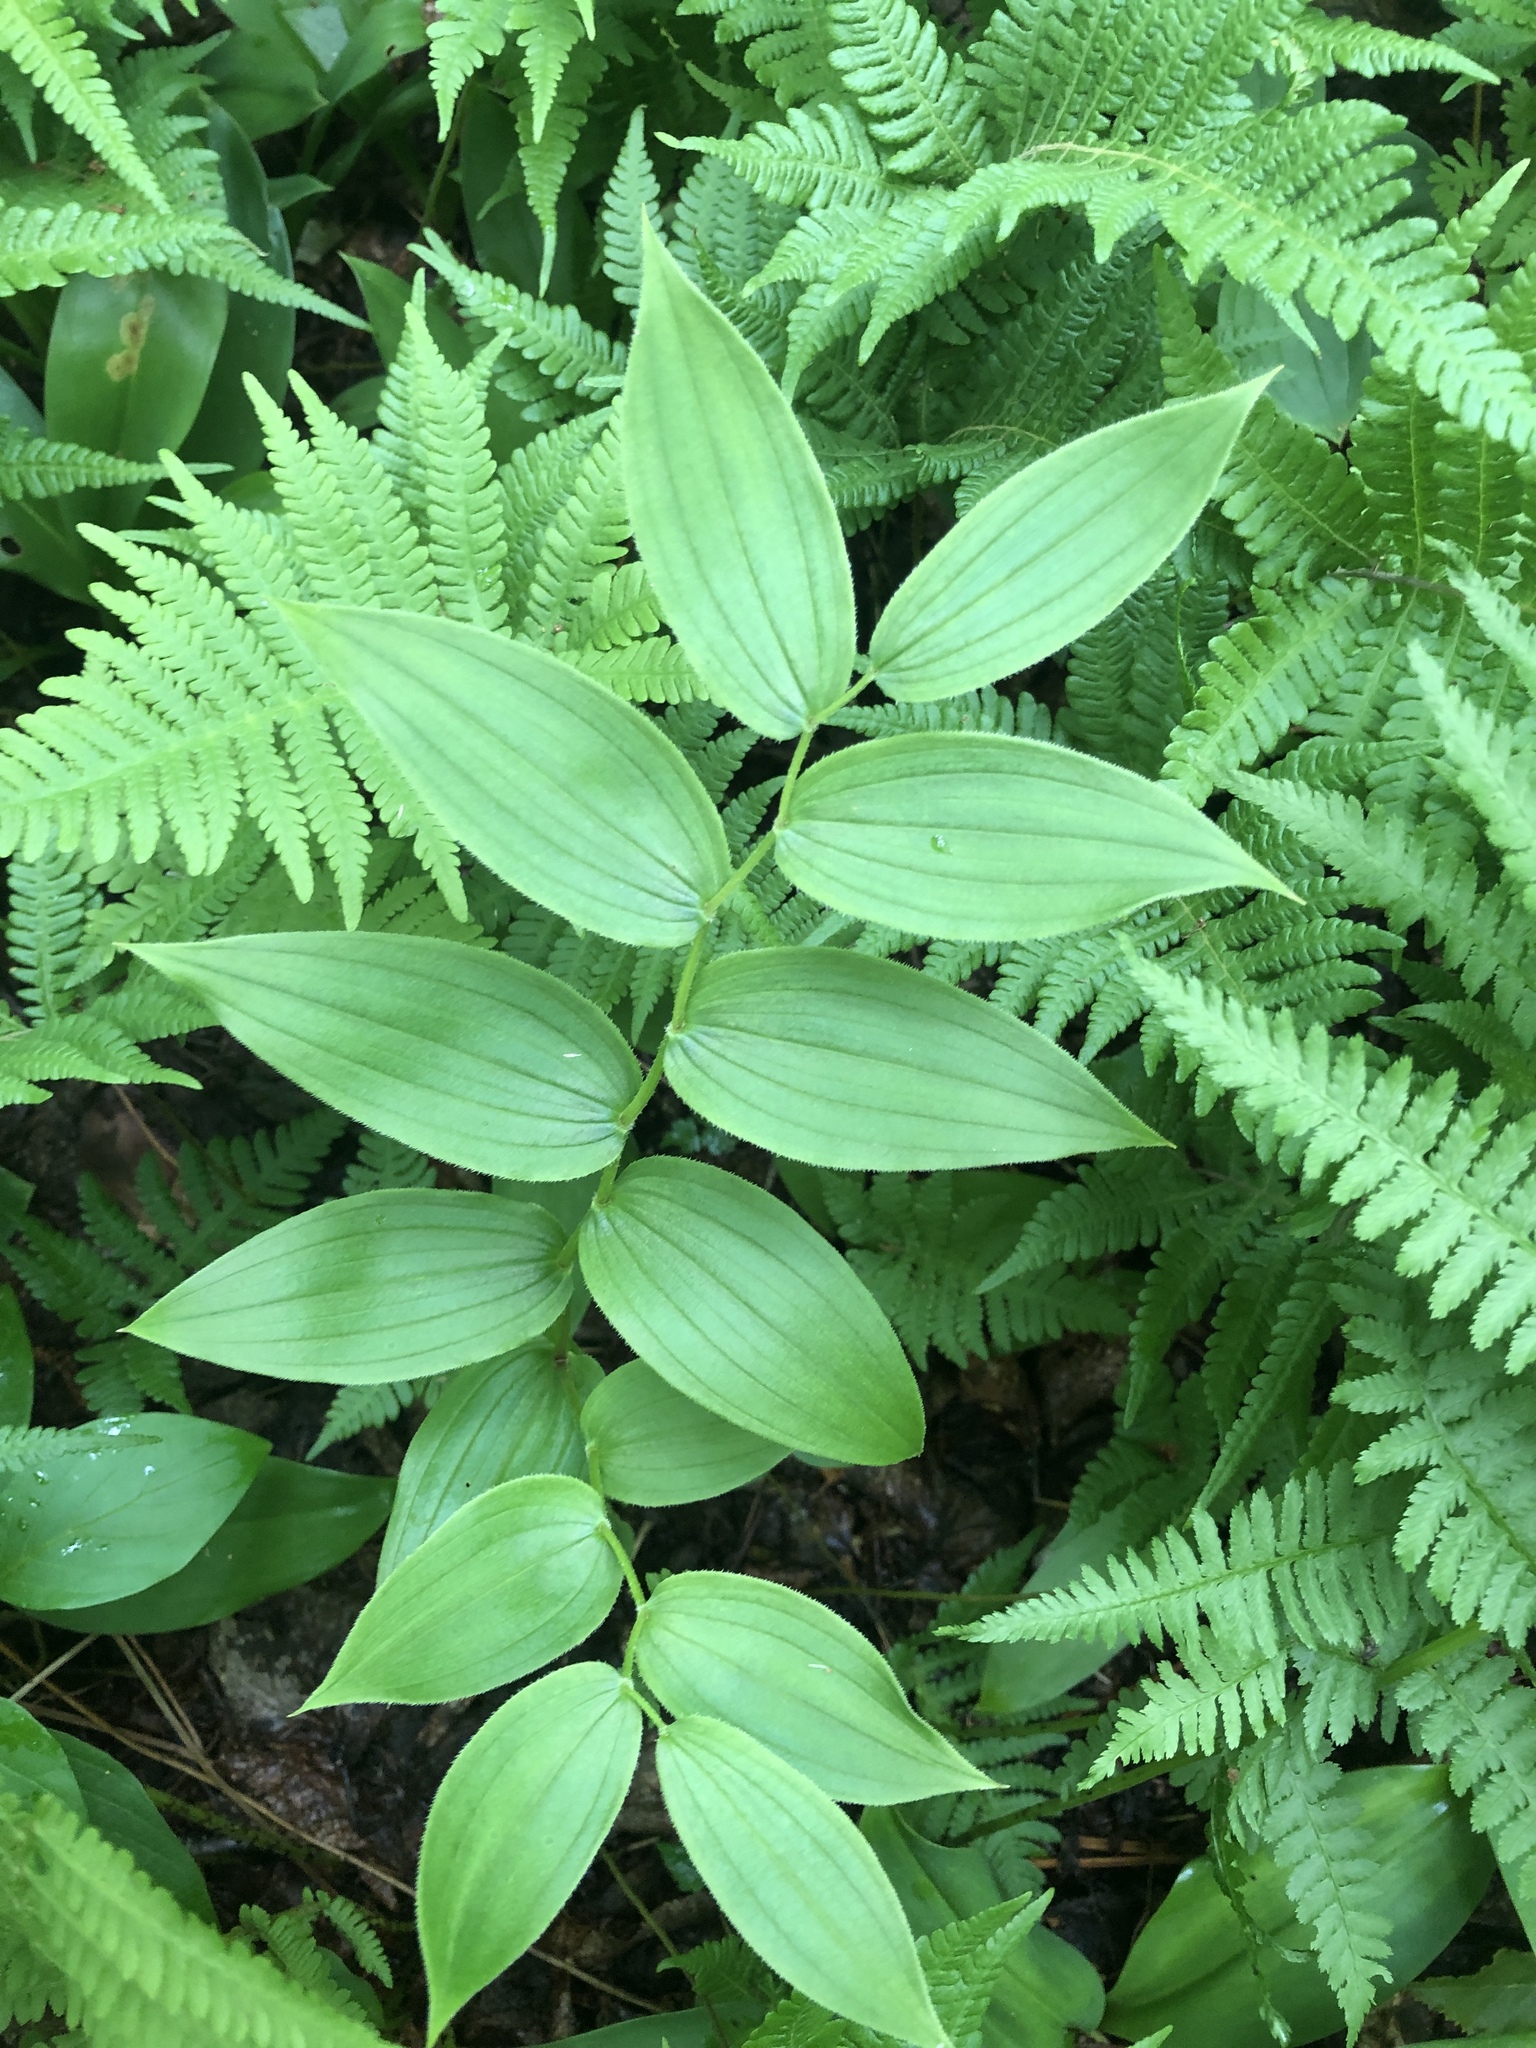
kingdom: Plantae
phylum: Tracheophyta
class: Liliopsida
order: Liliales
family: Liliaceae
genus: Streptopus
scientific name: Streptopus lanceolatus
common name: Rose mandarin
